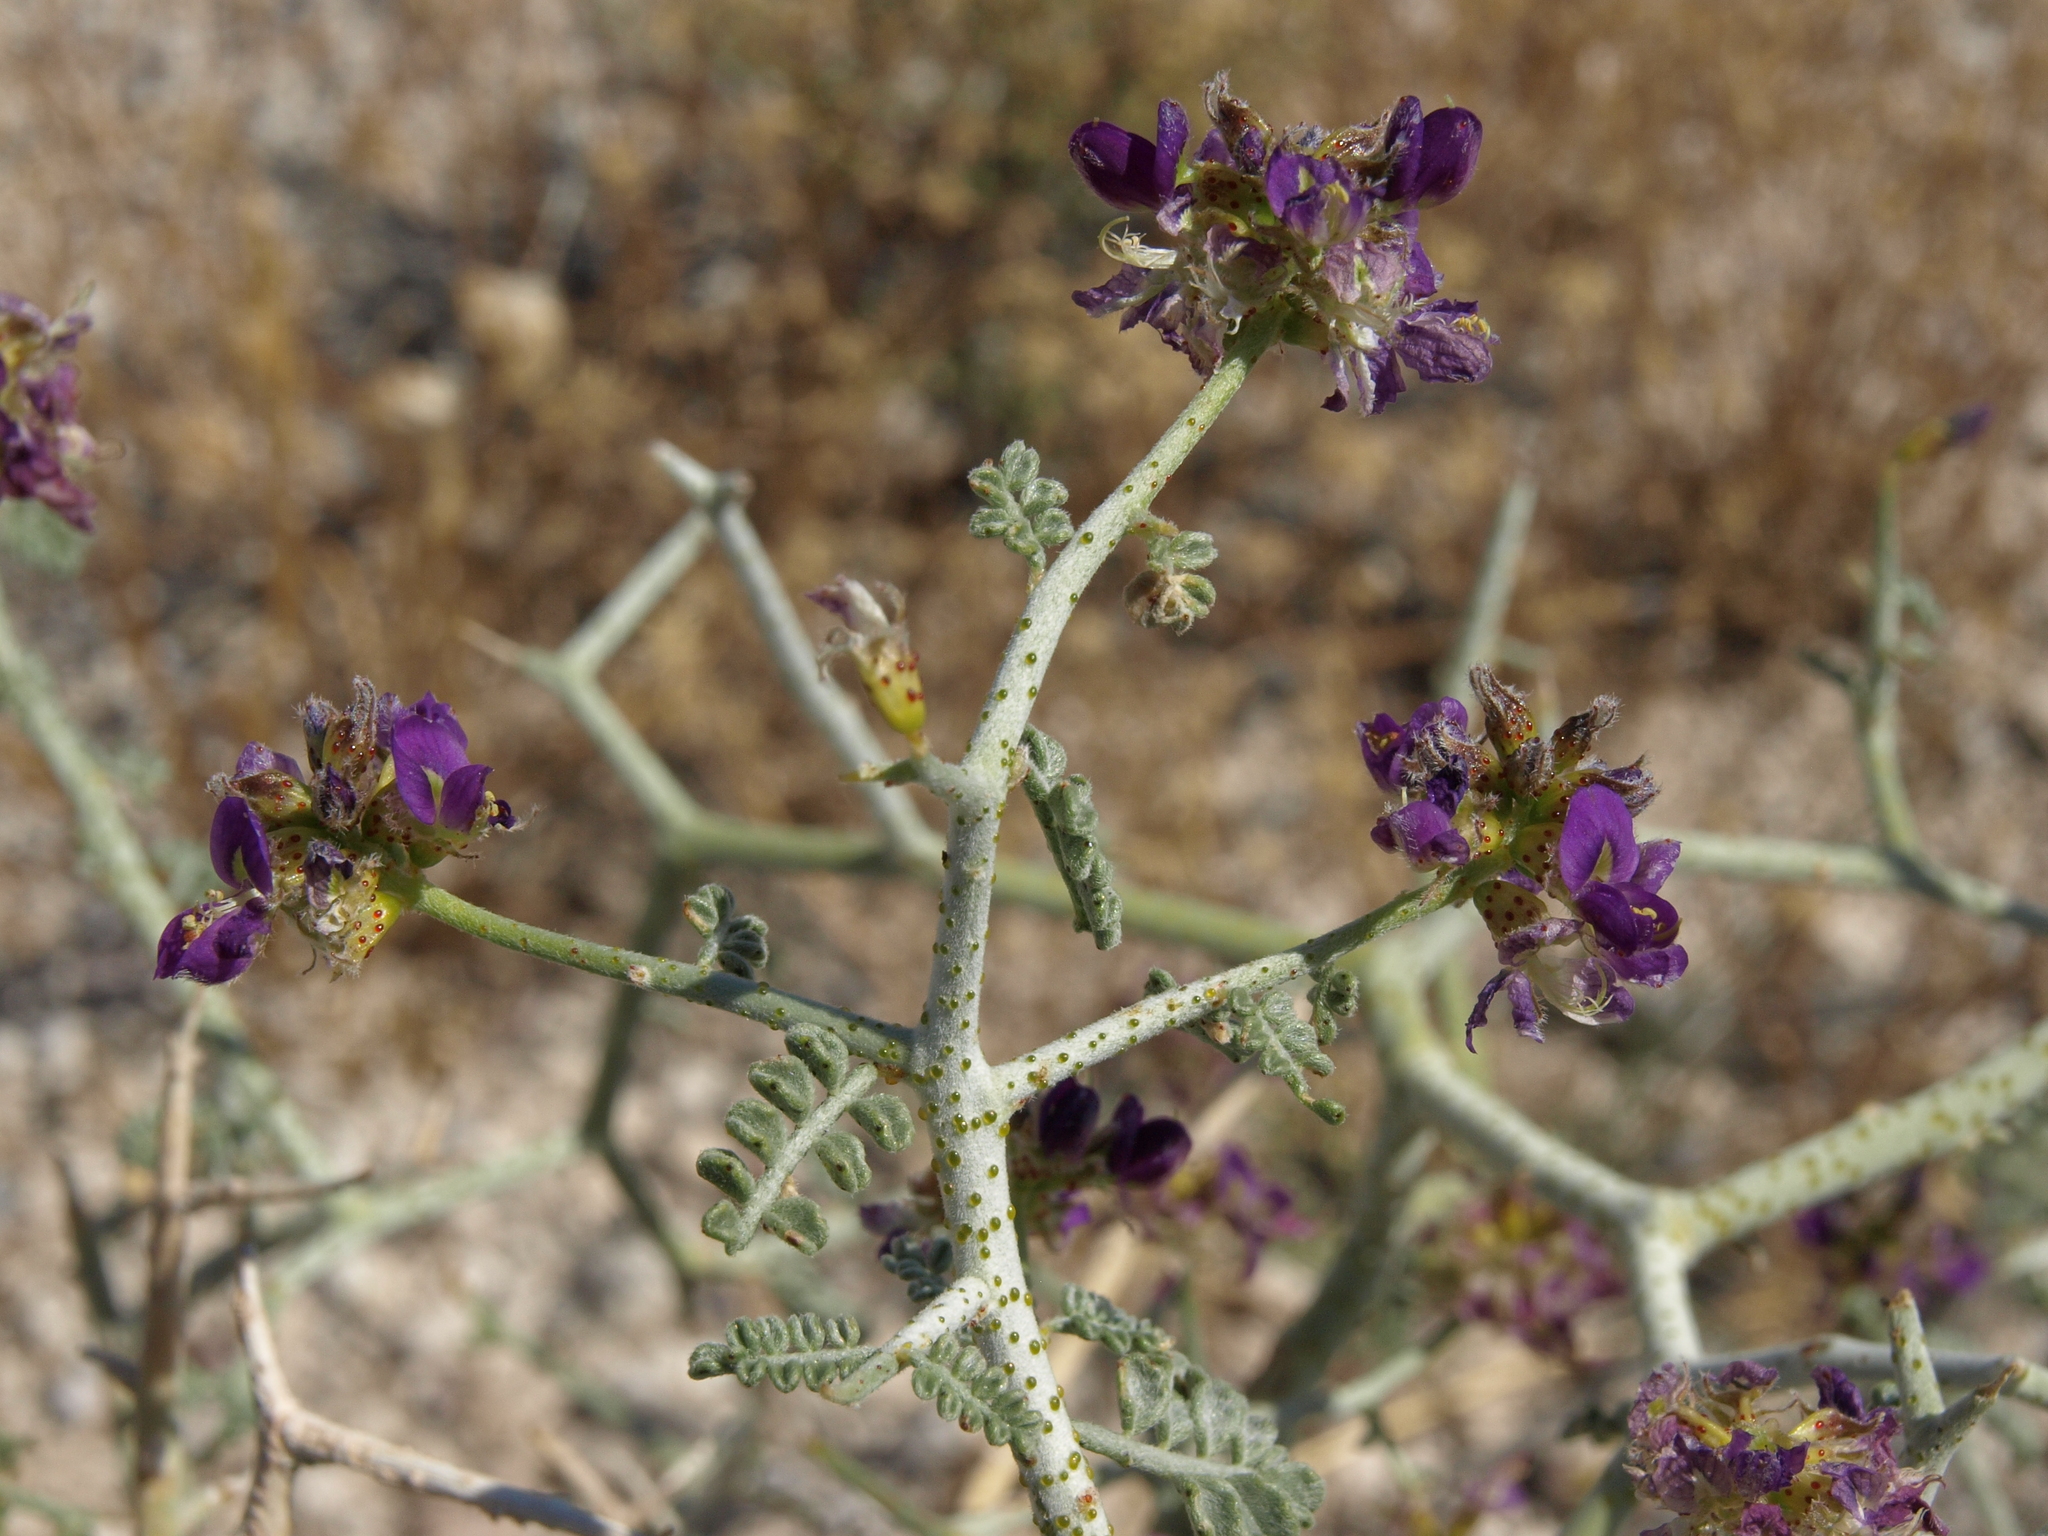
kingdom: Plantae
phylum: Tracheophyta
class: Magnoliopsida
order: Fabales
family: Fabaceae
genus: Psorothamnus
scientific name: Psorothamnus polydenius
